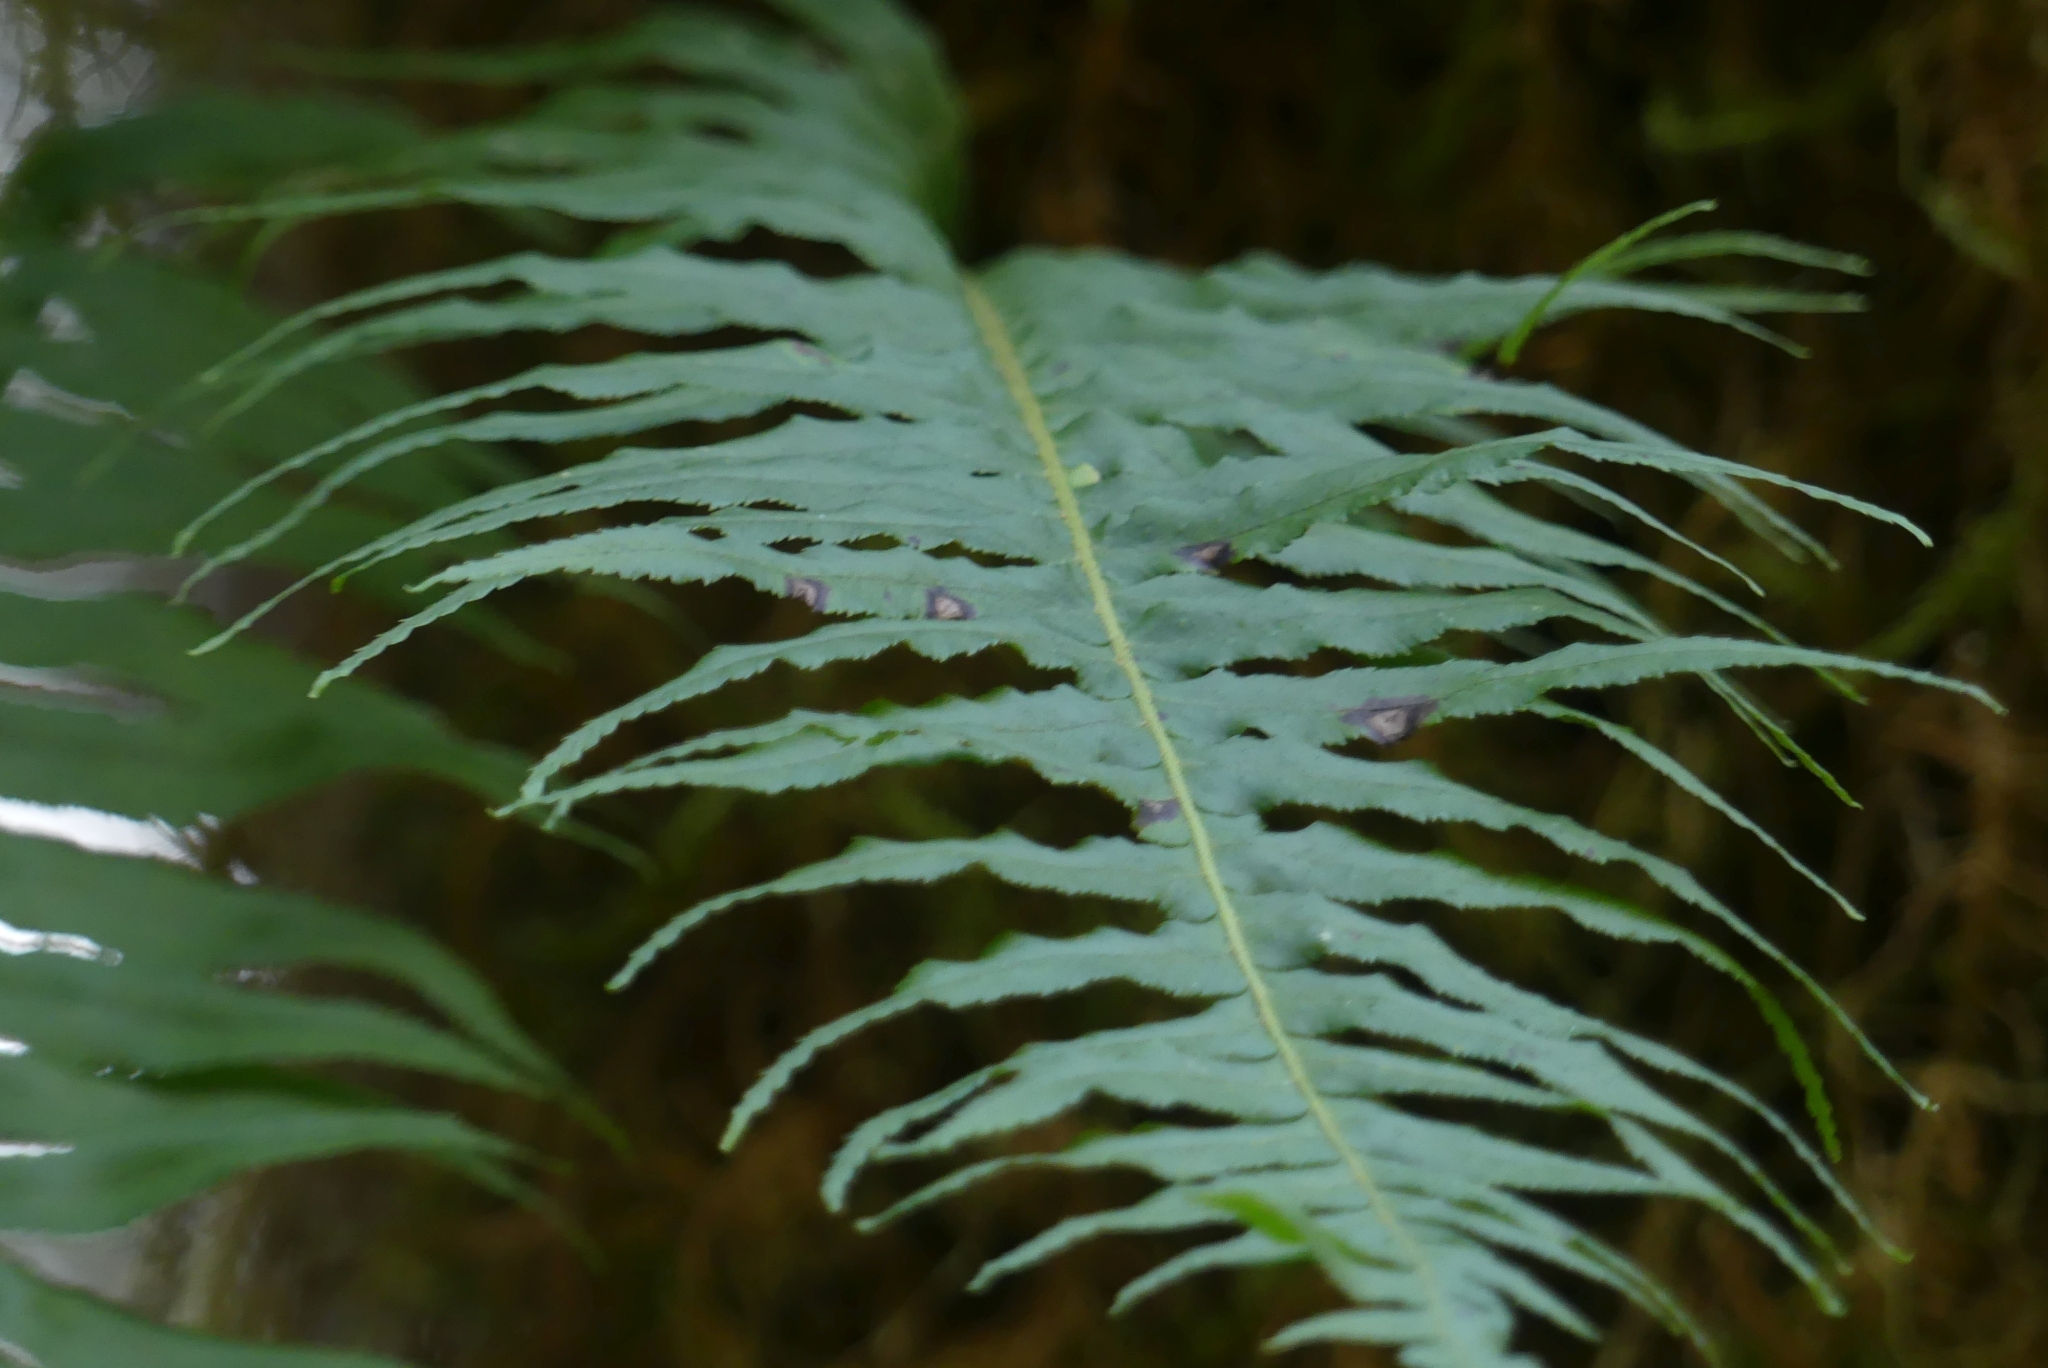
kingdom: Plantae
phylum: Tracheophyta
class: Polypodiopsida
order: Polypodiales
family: Polypodiaceae
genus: Polypodium
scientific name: Polypodium glycyrrhiza
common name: Licorice fern
